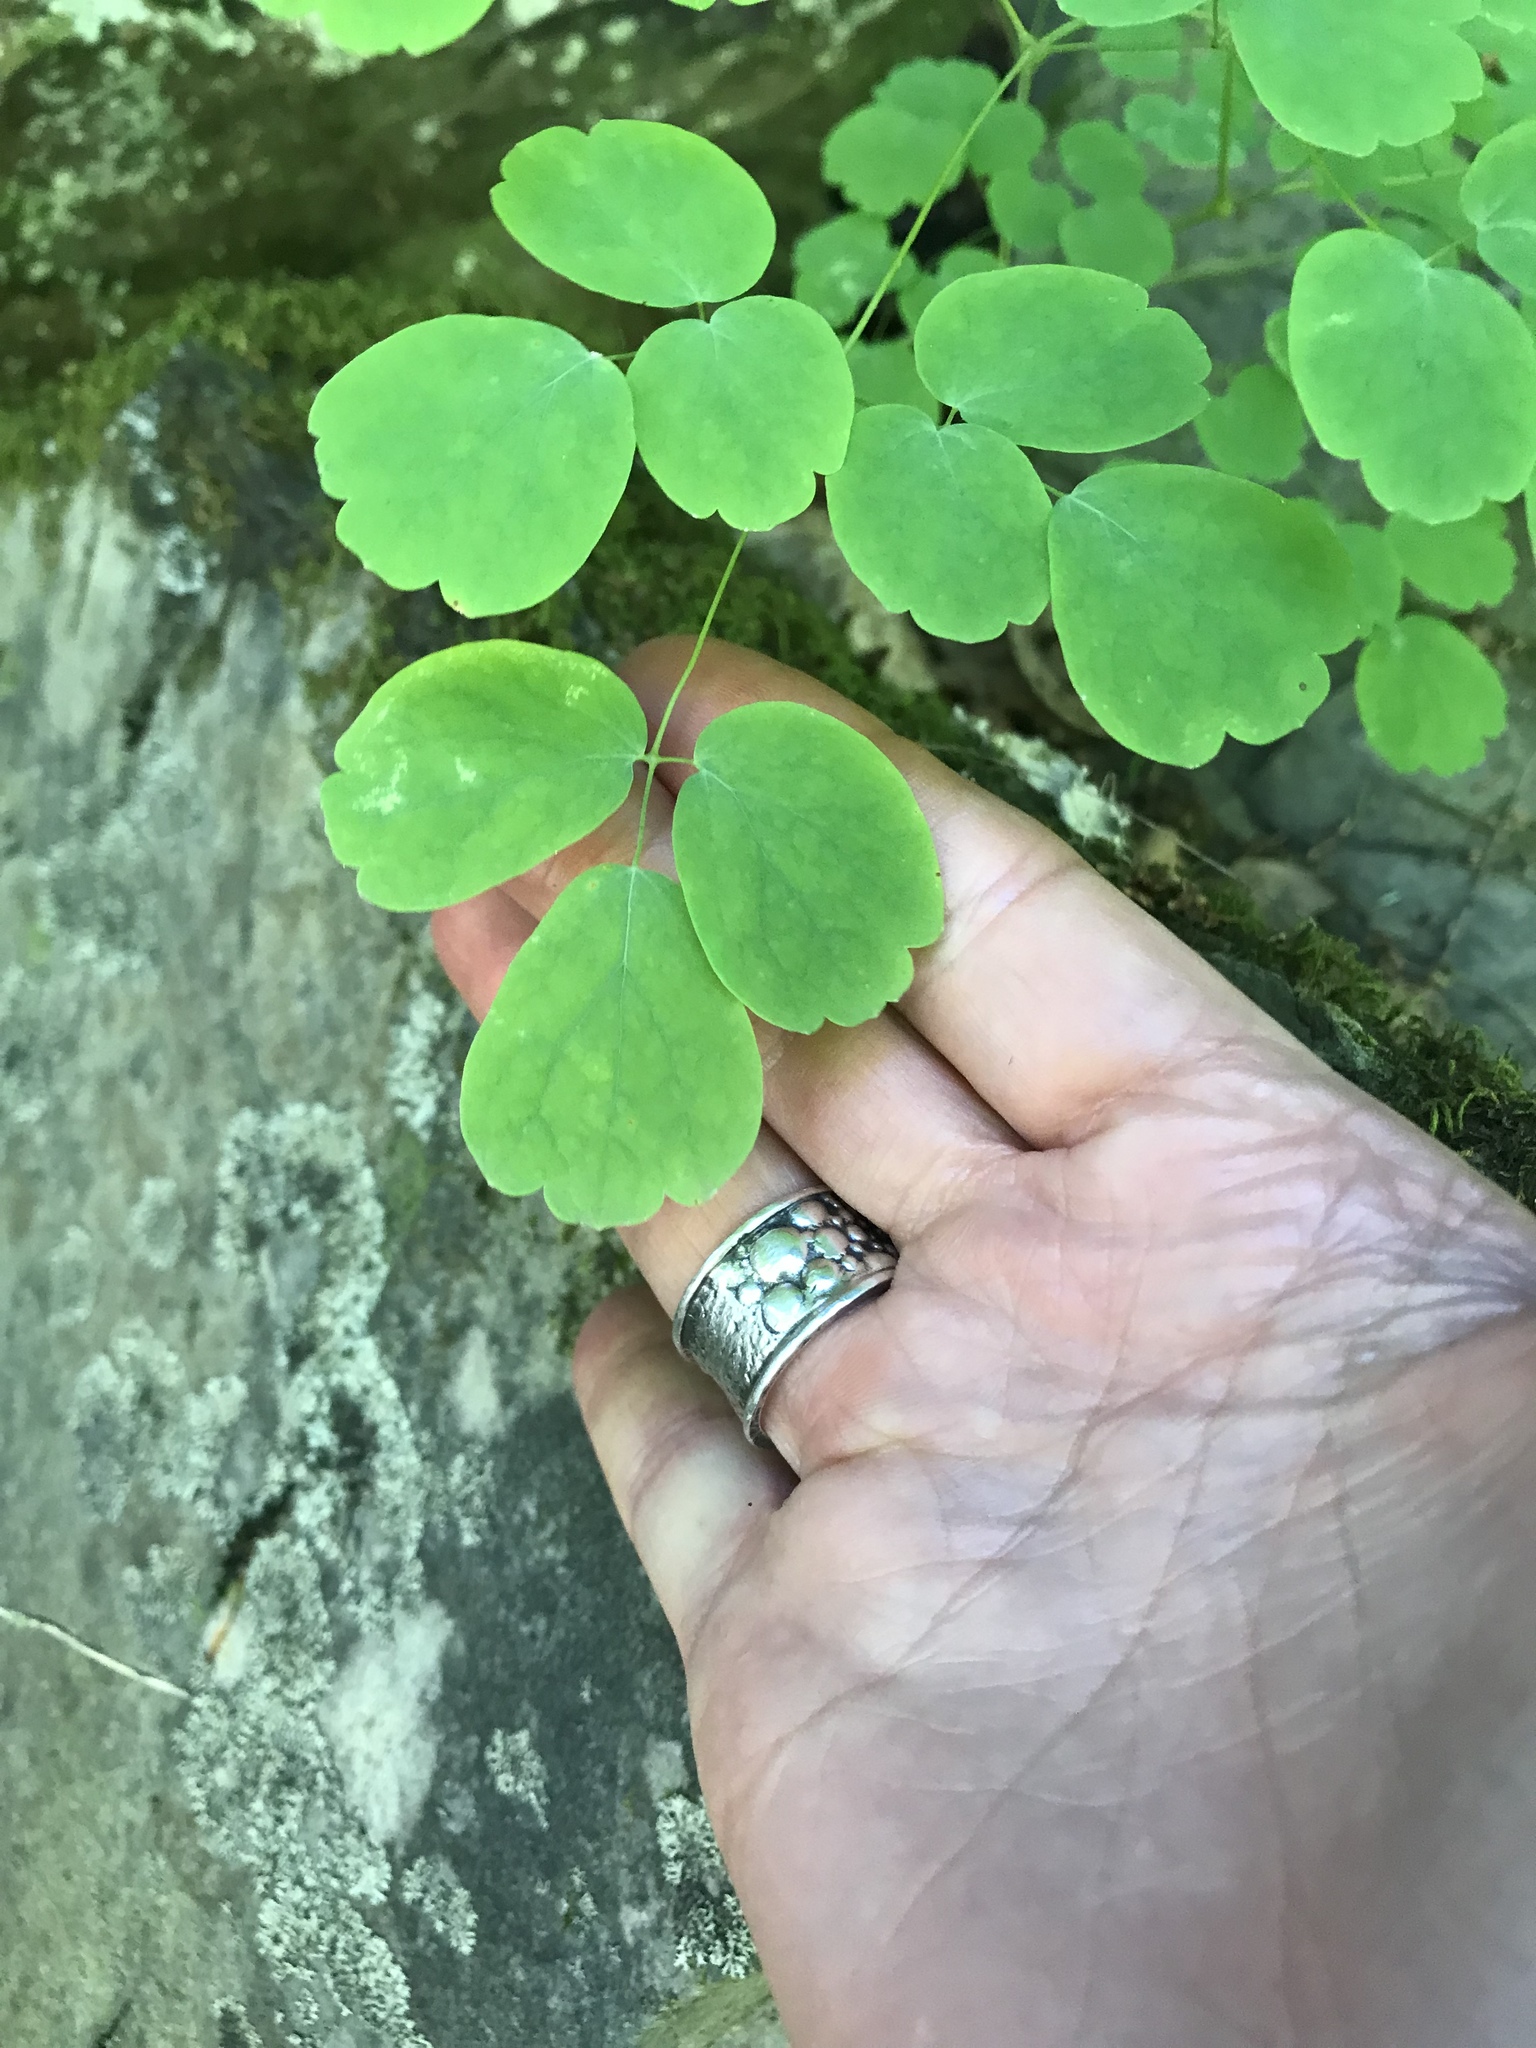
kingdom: Plantae
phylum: Tracheophyta
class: Magnoliopsida
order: Ranunculales
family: Ranunculaceae
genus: Thalictrum
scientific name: Thalictrum dioicum
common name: Early meadow-rue
